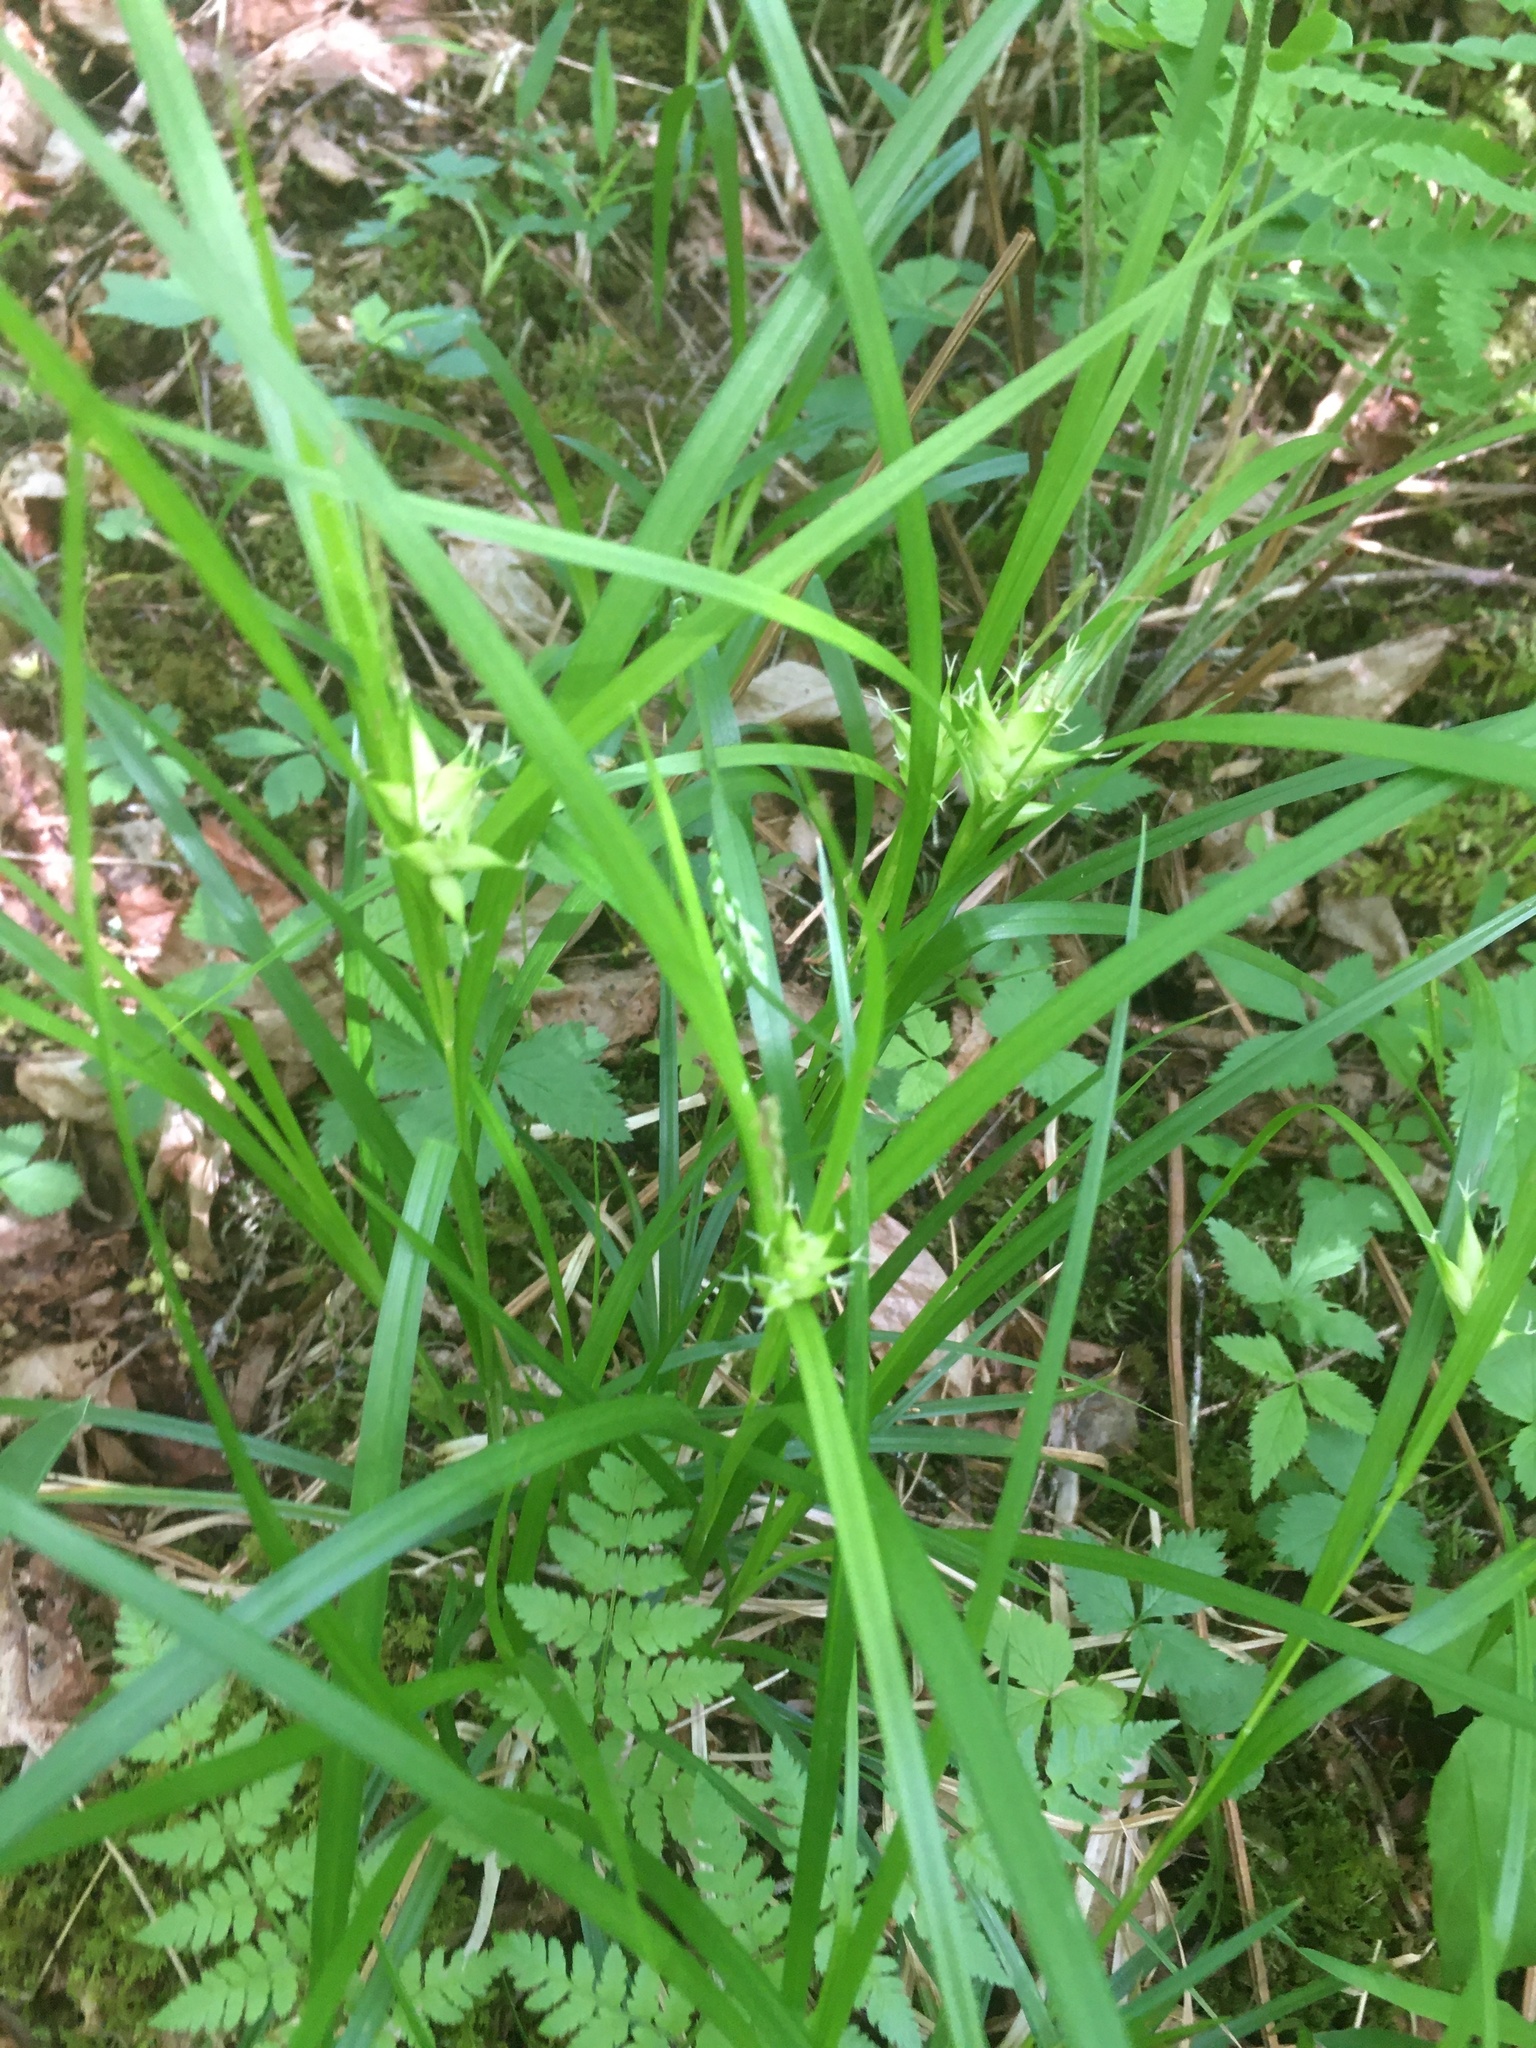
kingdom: Plantae
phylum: Tracheophyta
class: Liliopsida
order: Poales
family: Cyperaceae
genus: Carex
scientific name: Carex intumescens
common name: Greater bladder sedge
